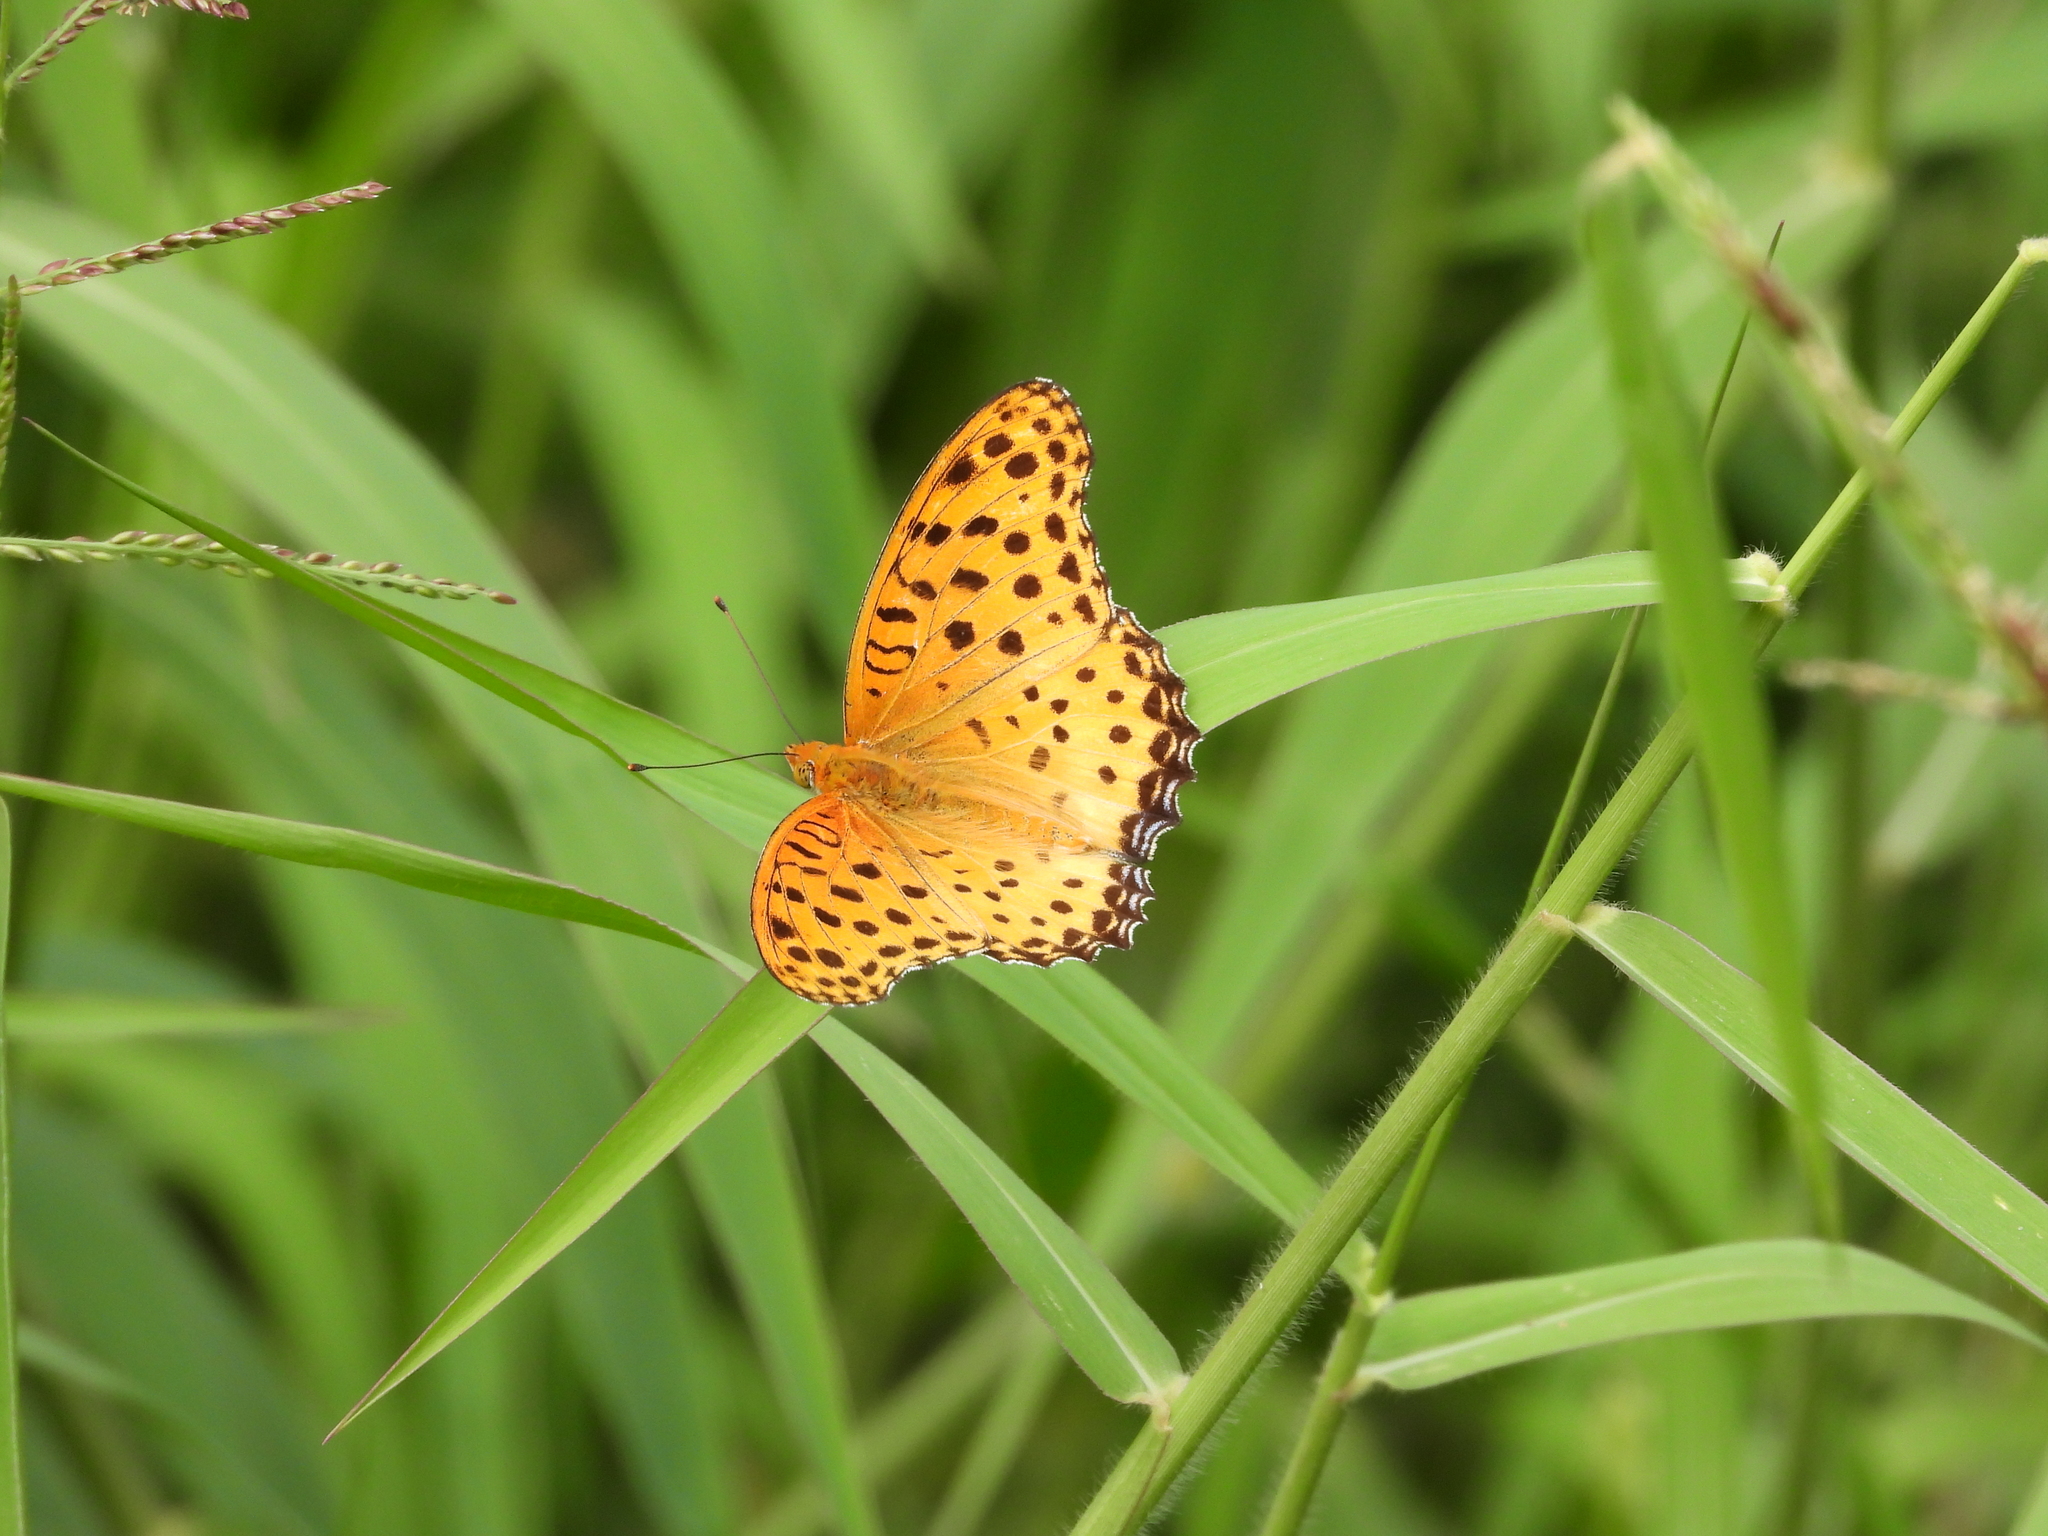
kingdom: Animalia
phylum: Arthropoda
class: Insecta
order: Lepidoptera
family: Nymphalidae
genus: Argynnis
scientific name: Argynnis hyperbius
